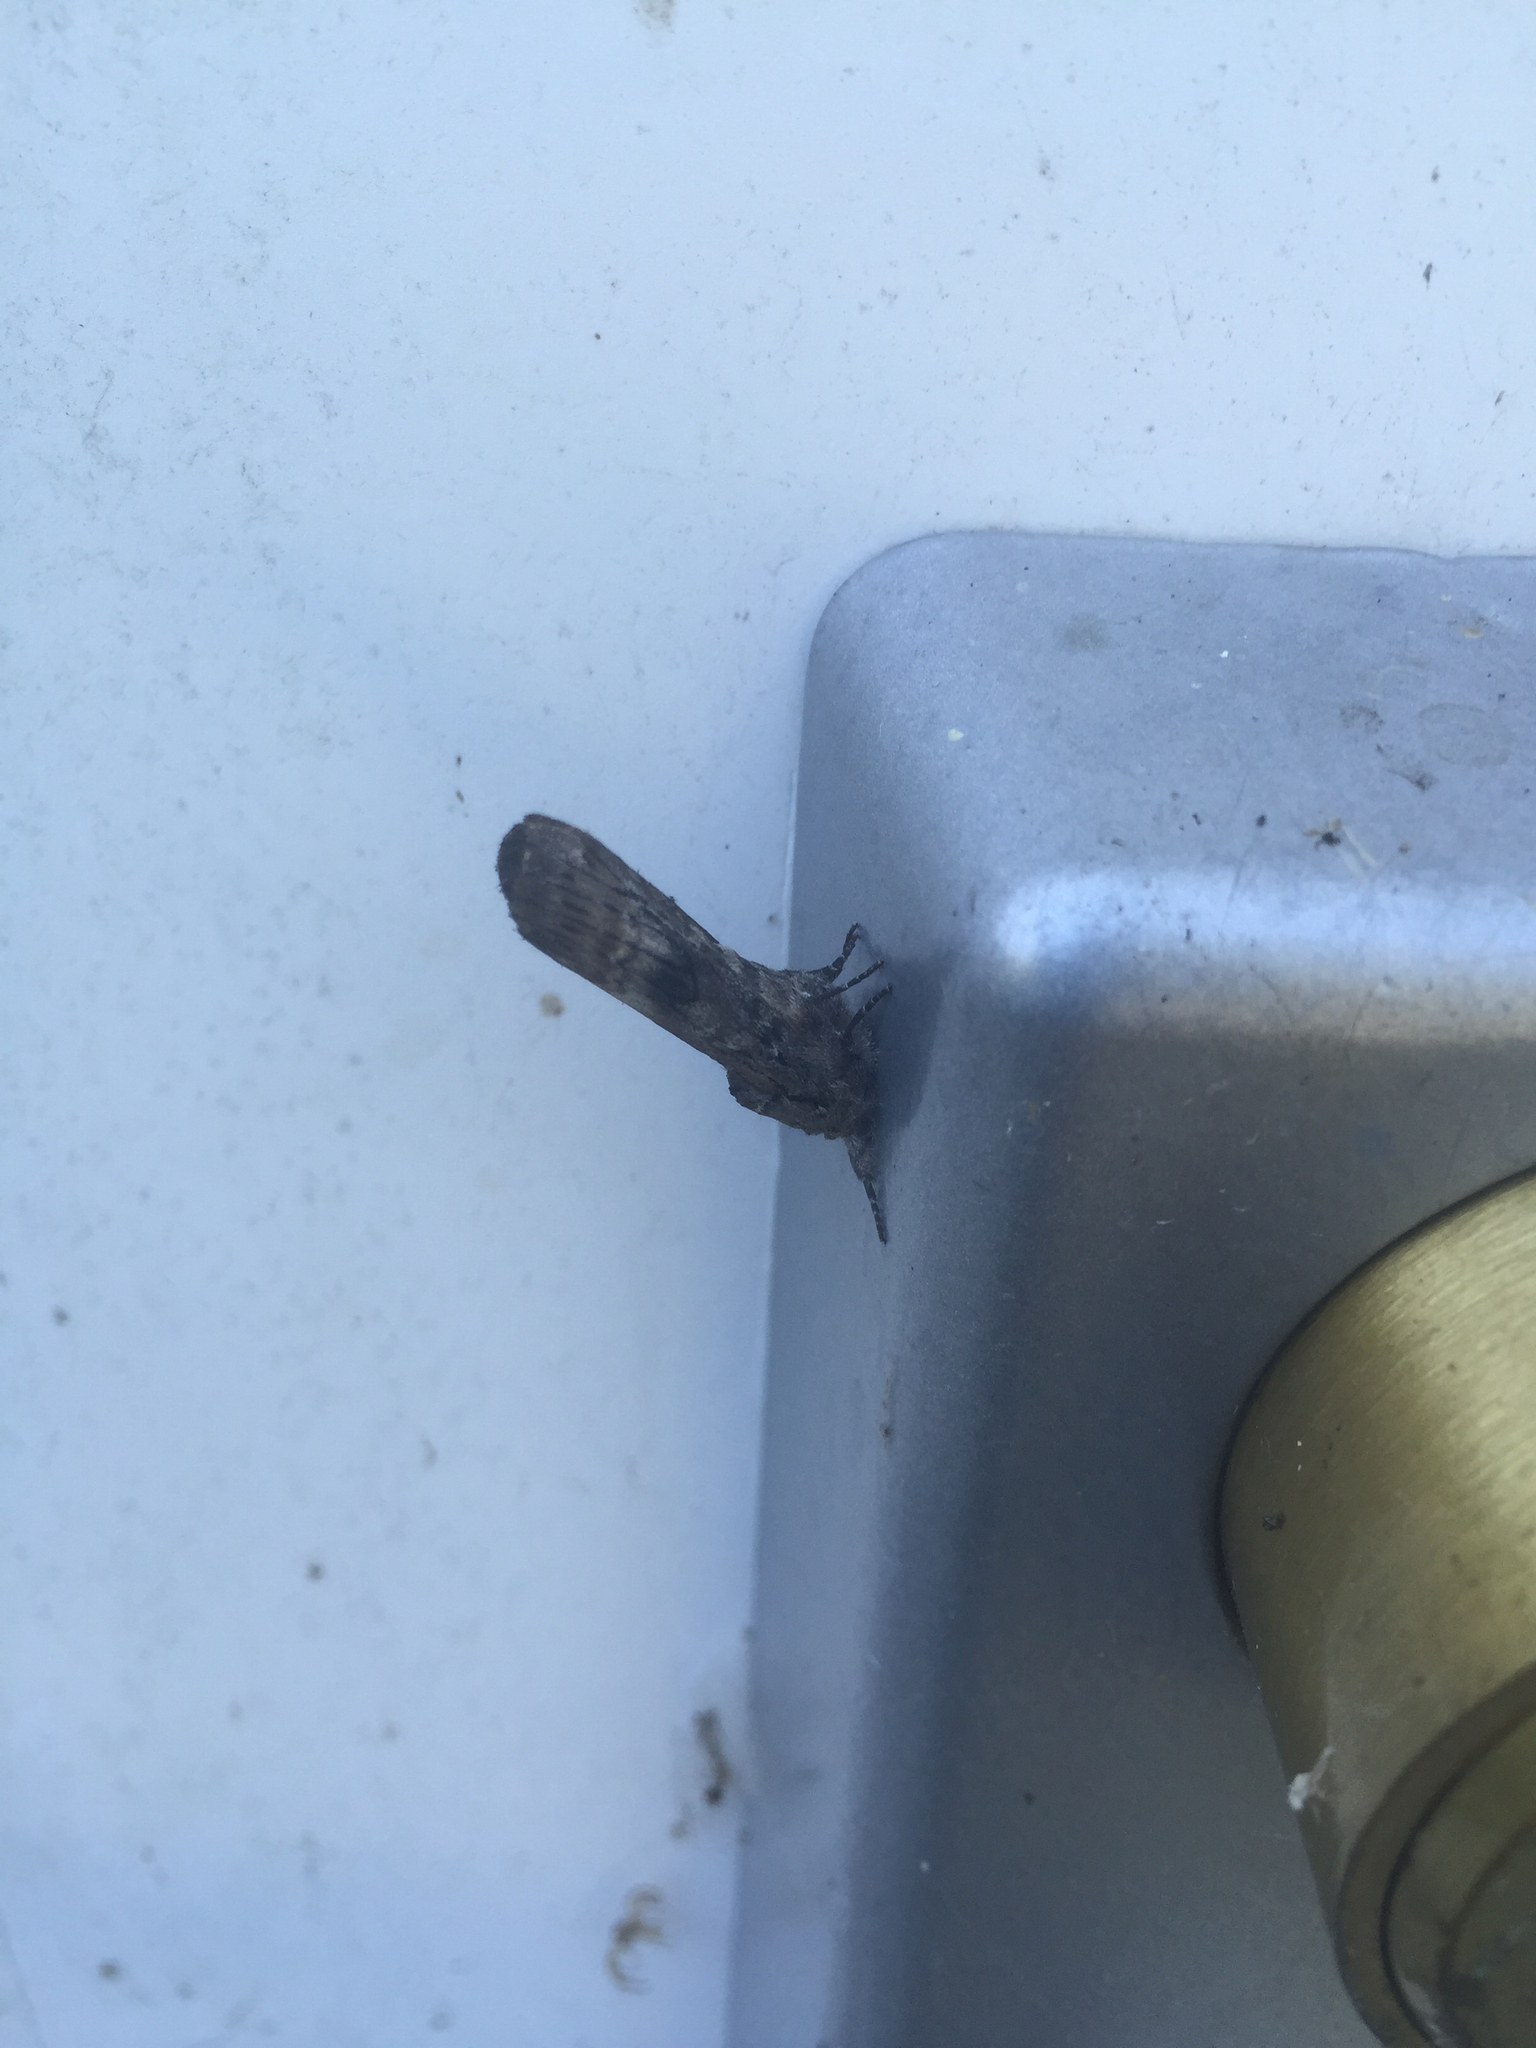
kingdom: Animalia
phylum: Arthropoda
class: Insecta
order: Lepidoptera
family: Notodontidae
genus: Schizura
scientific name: Schizura
